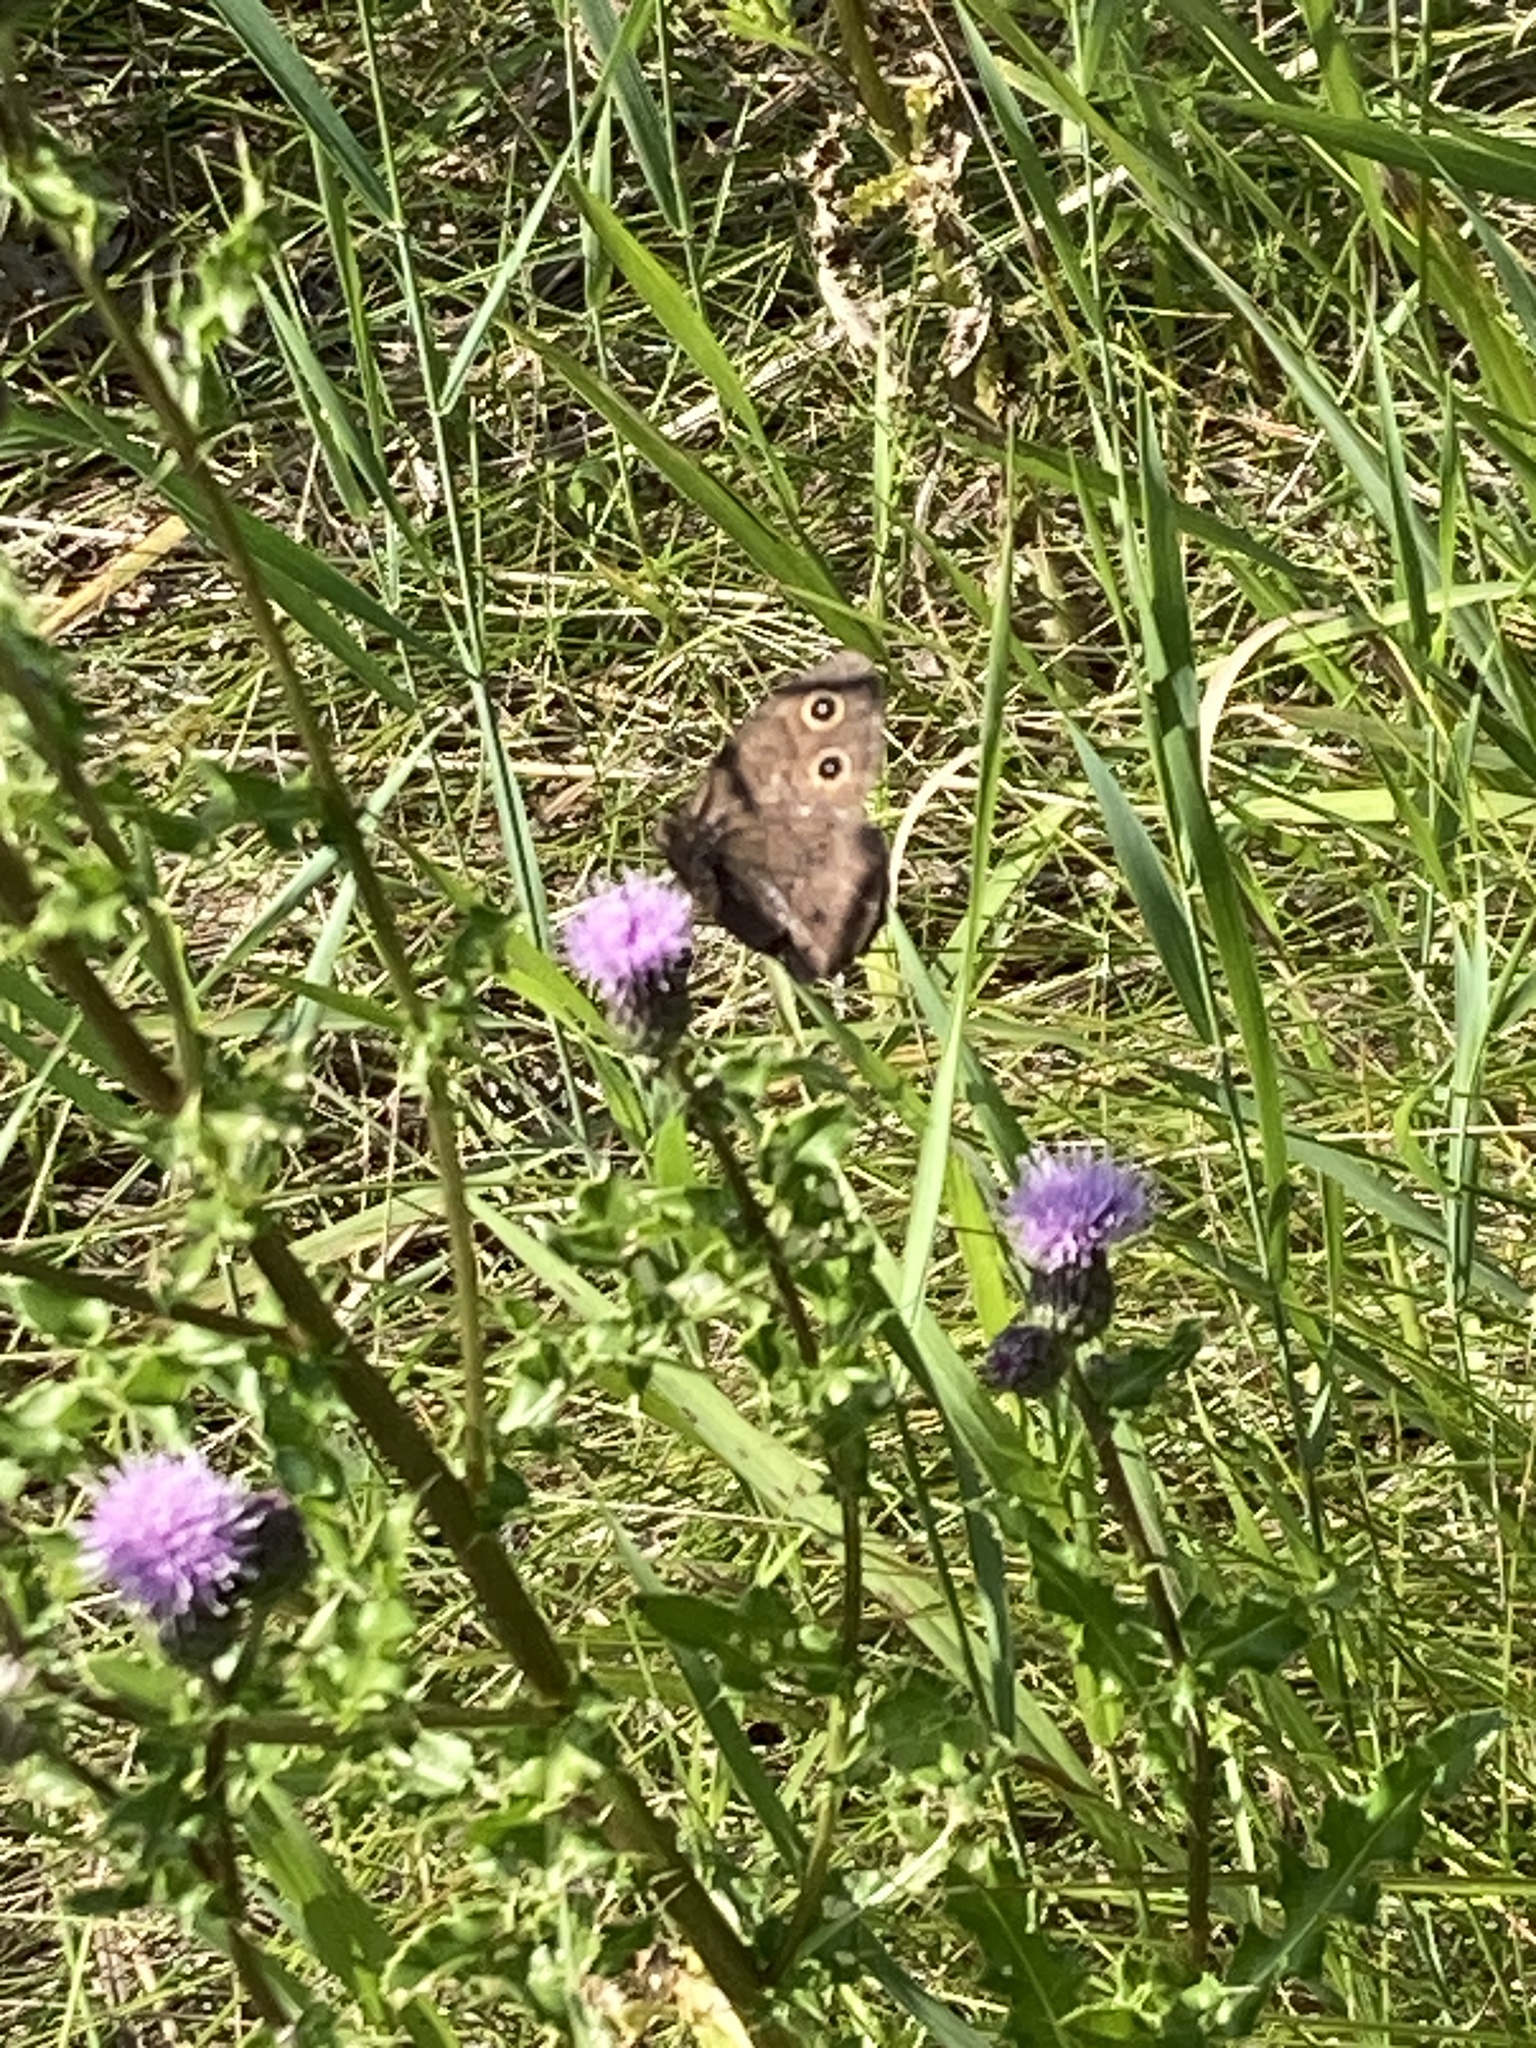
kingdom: Animalia
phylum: Arthropoda
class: Insecta
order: Lepidoptera
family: Nymphalidae
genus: Cercyonis
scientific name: Cercyonis pegala
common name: Common wood-nymph
